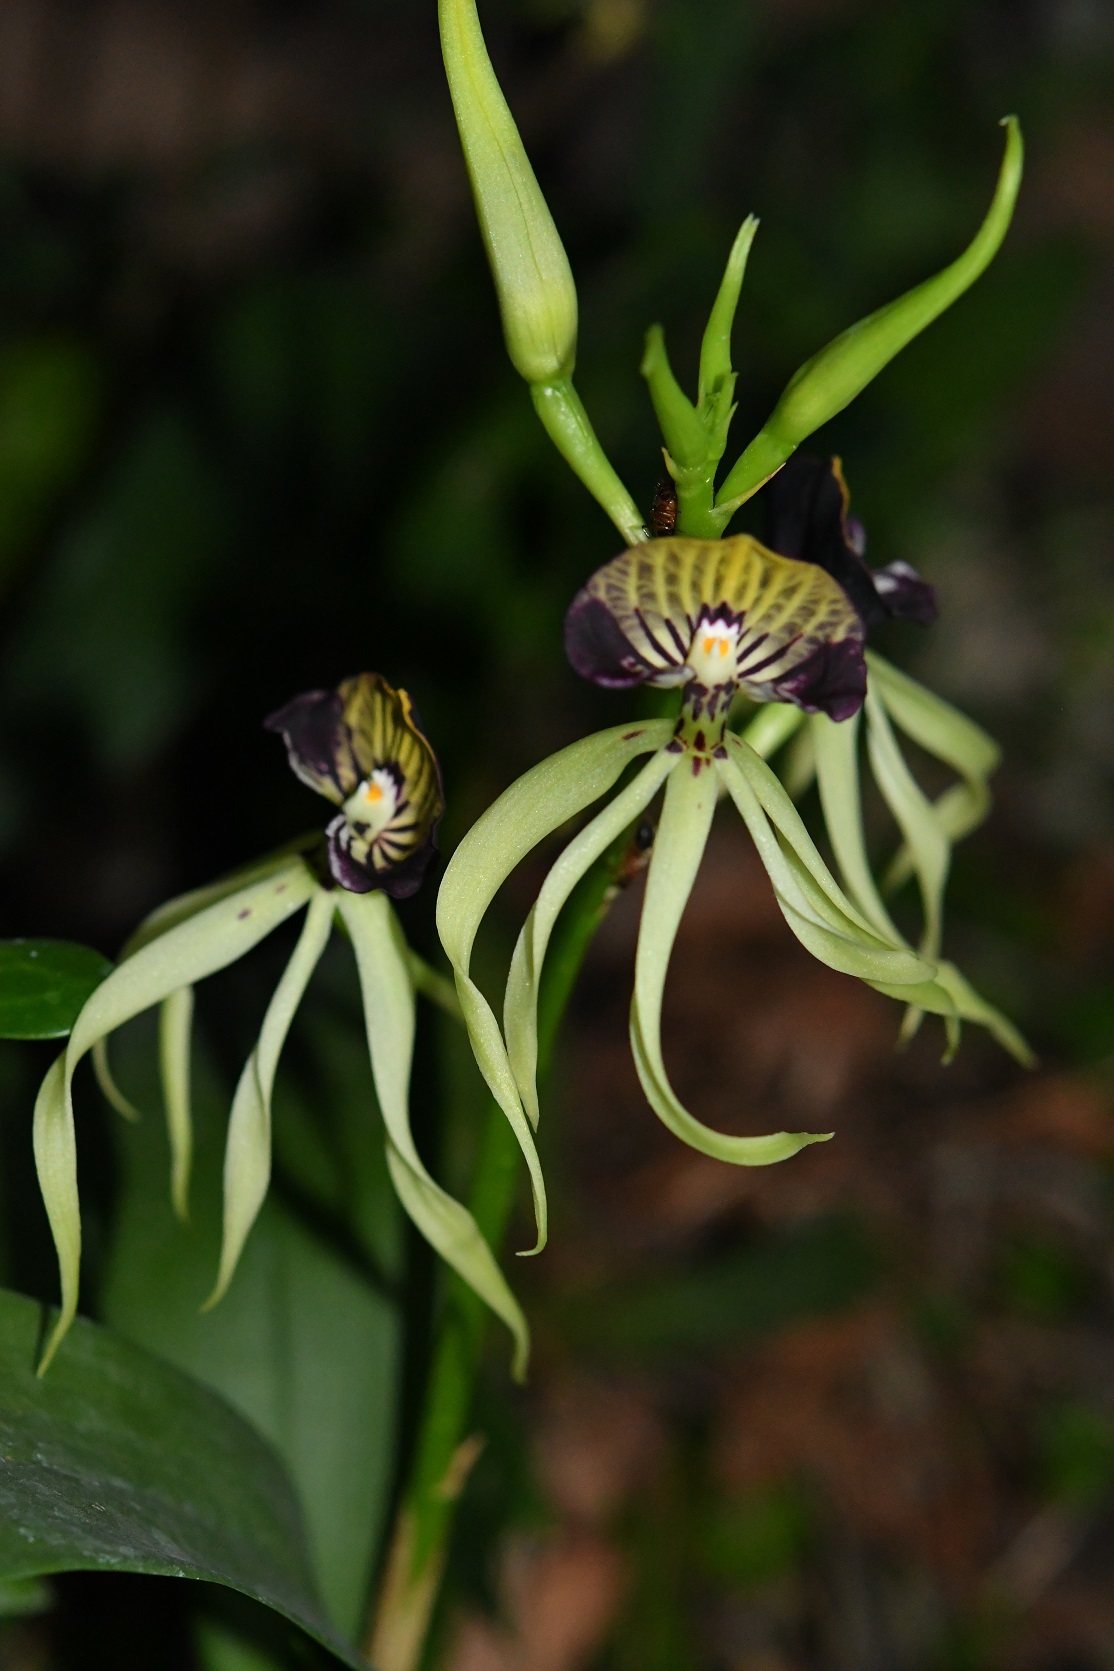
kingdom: Plantae
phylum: Tracheophyta
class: Liliopsida
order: Asparagales
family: Orchidaceae
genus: Prosthechea
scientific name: Prosthechea cochleata
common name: Clamshell orchid
